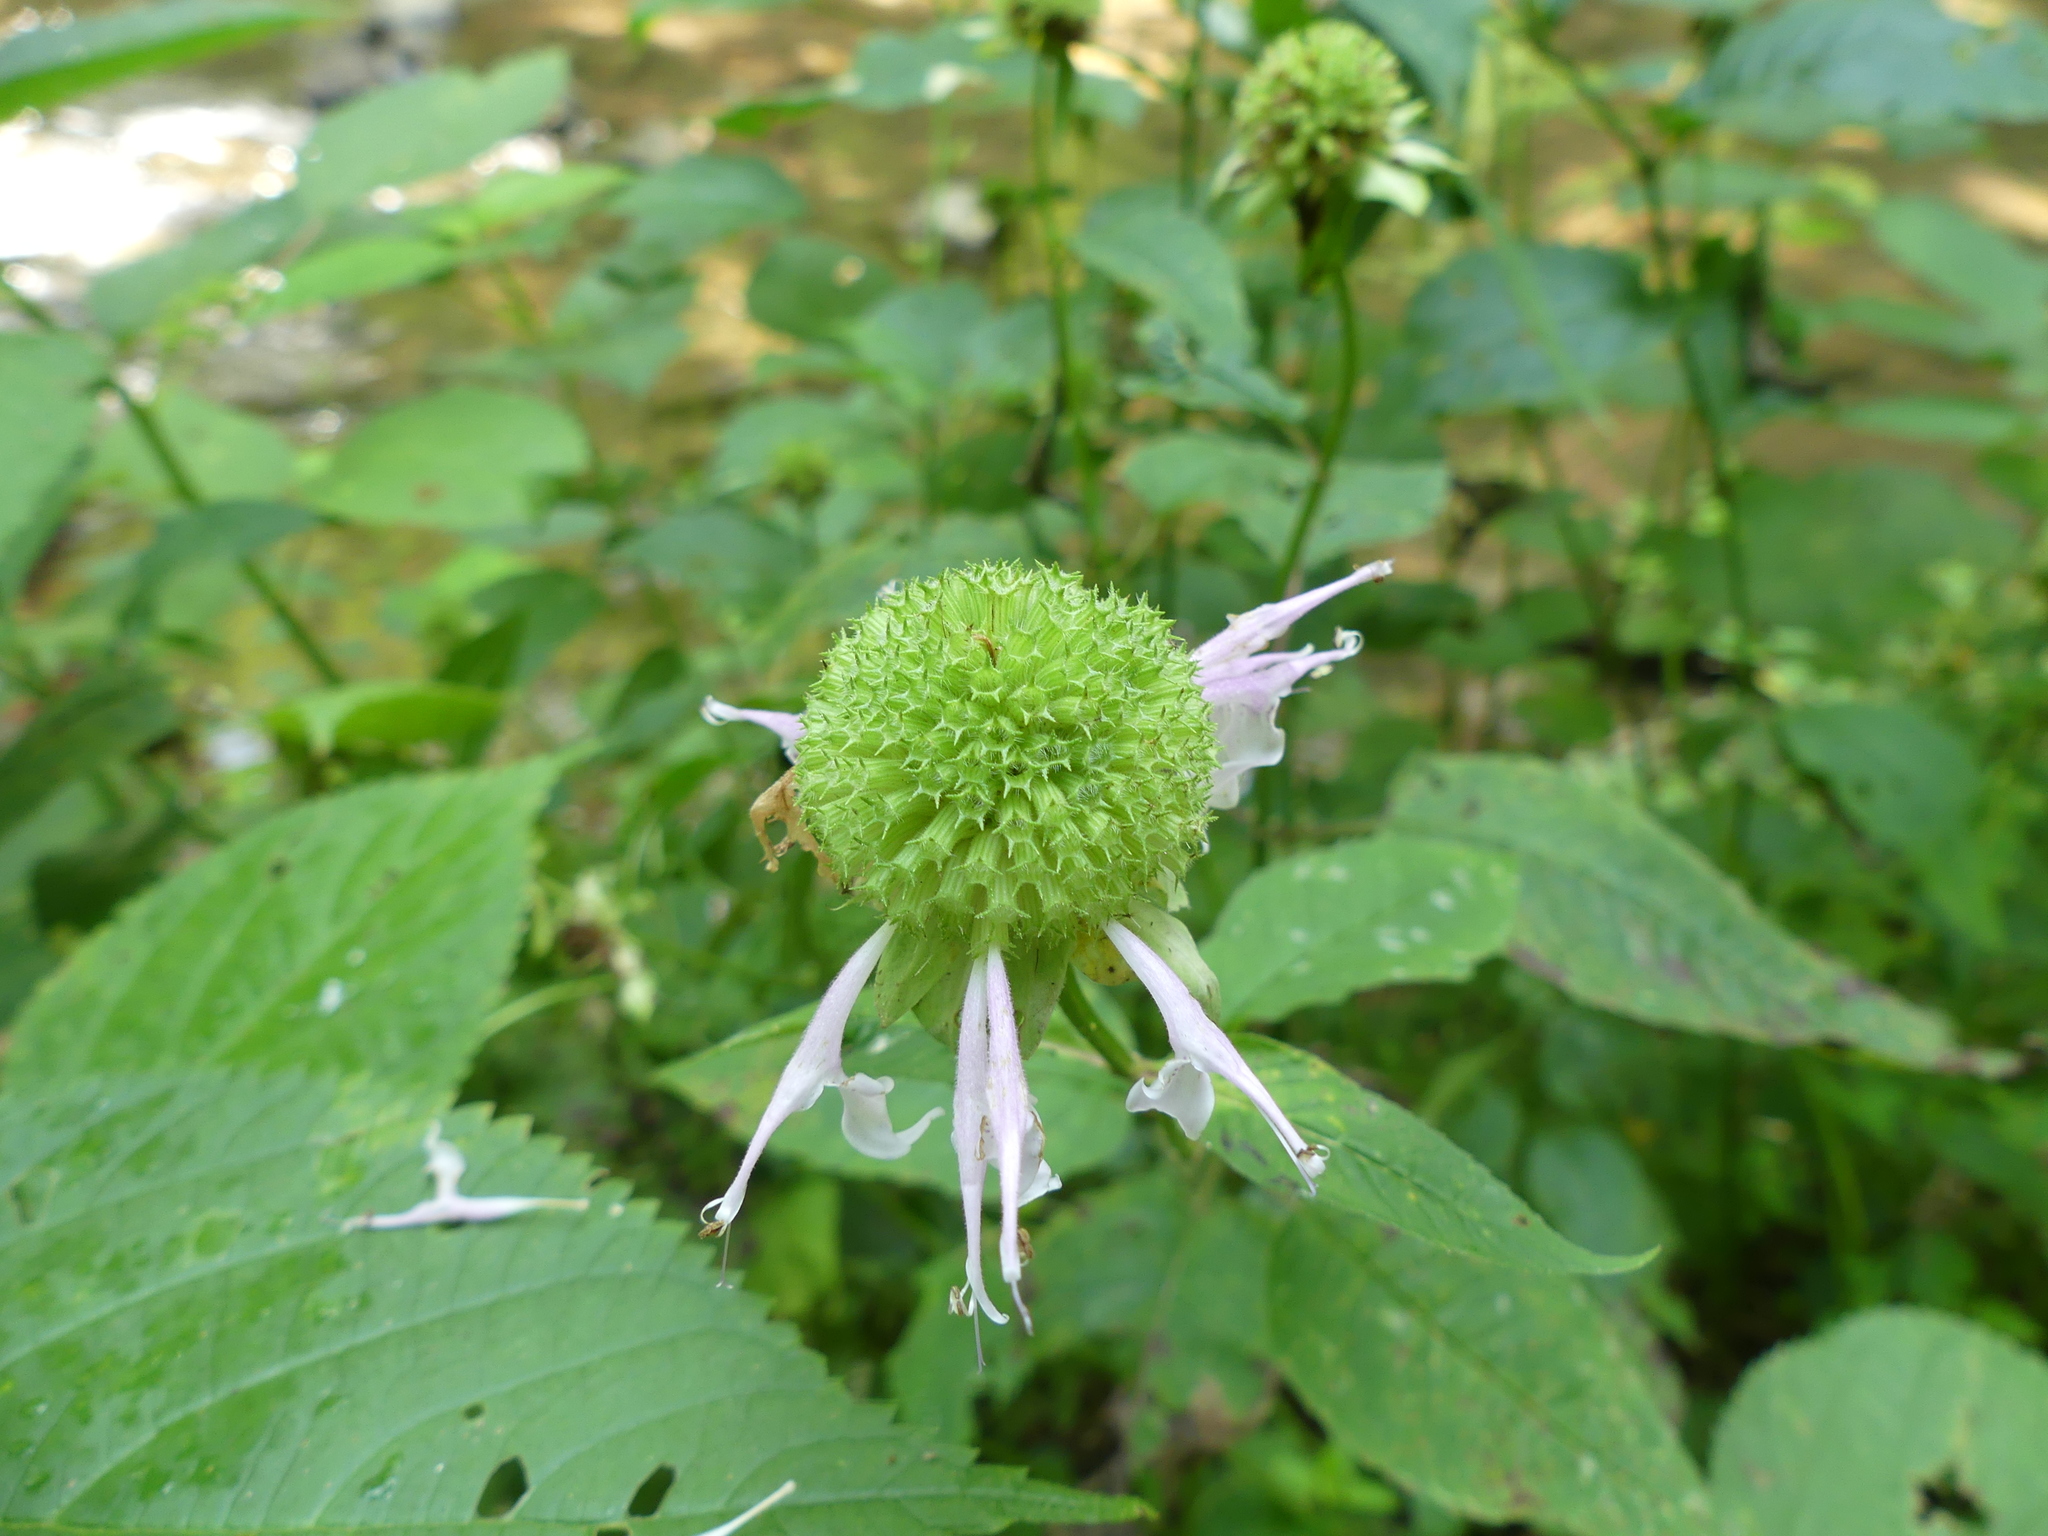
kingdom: Plantae
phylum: Tracheophyta
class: Magnoliopsida
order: Lamiales
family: Lamiaceae
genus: Monarda
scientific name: Monarda fistulosa
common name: Purple beebalm
